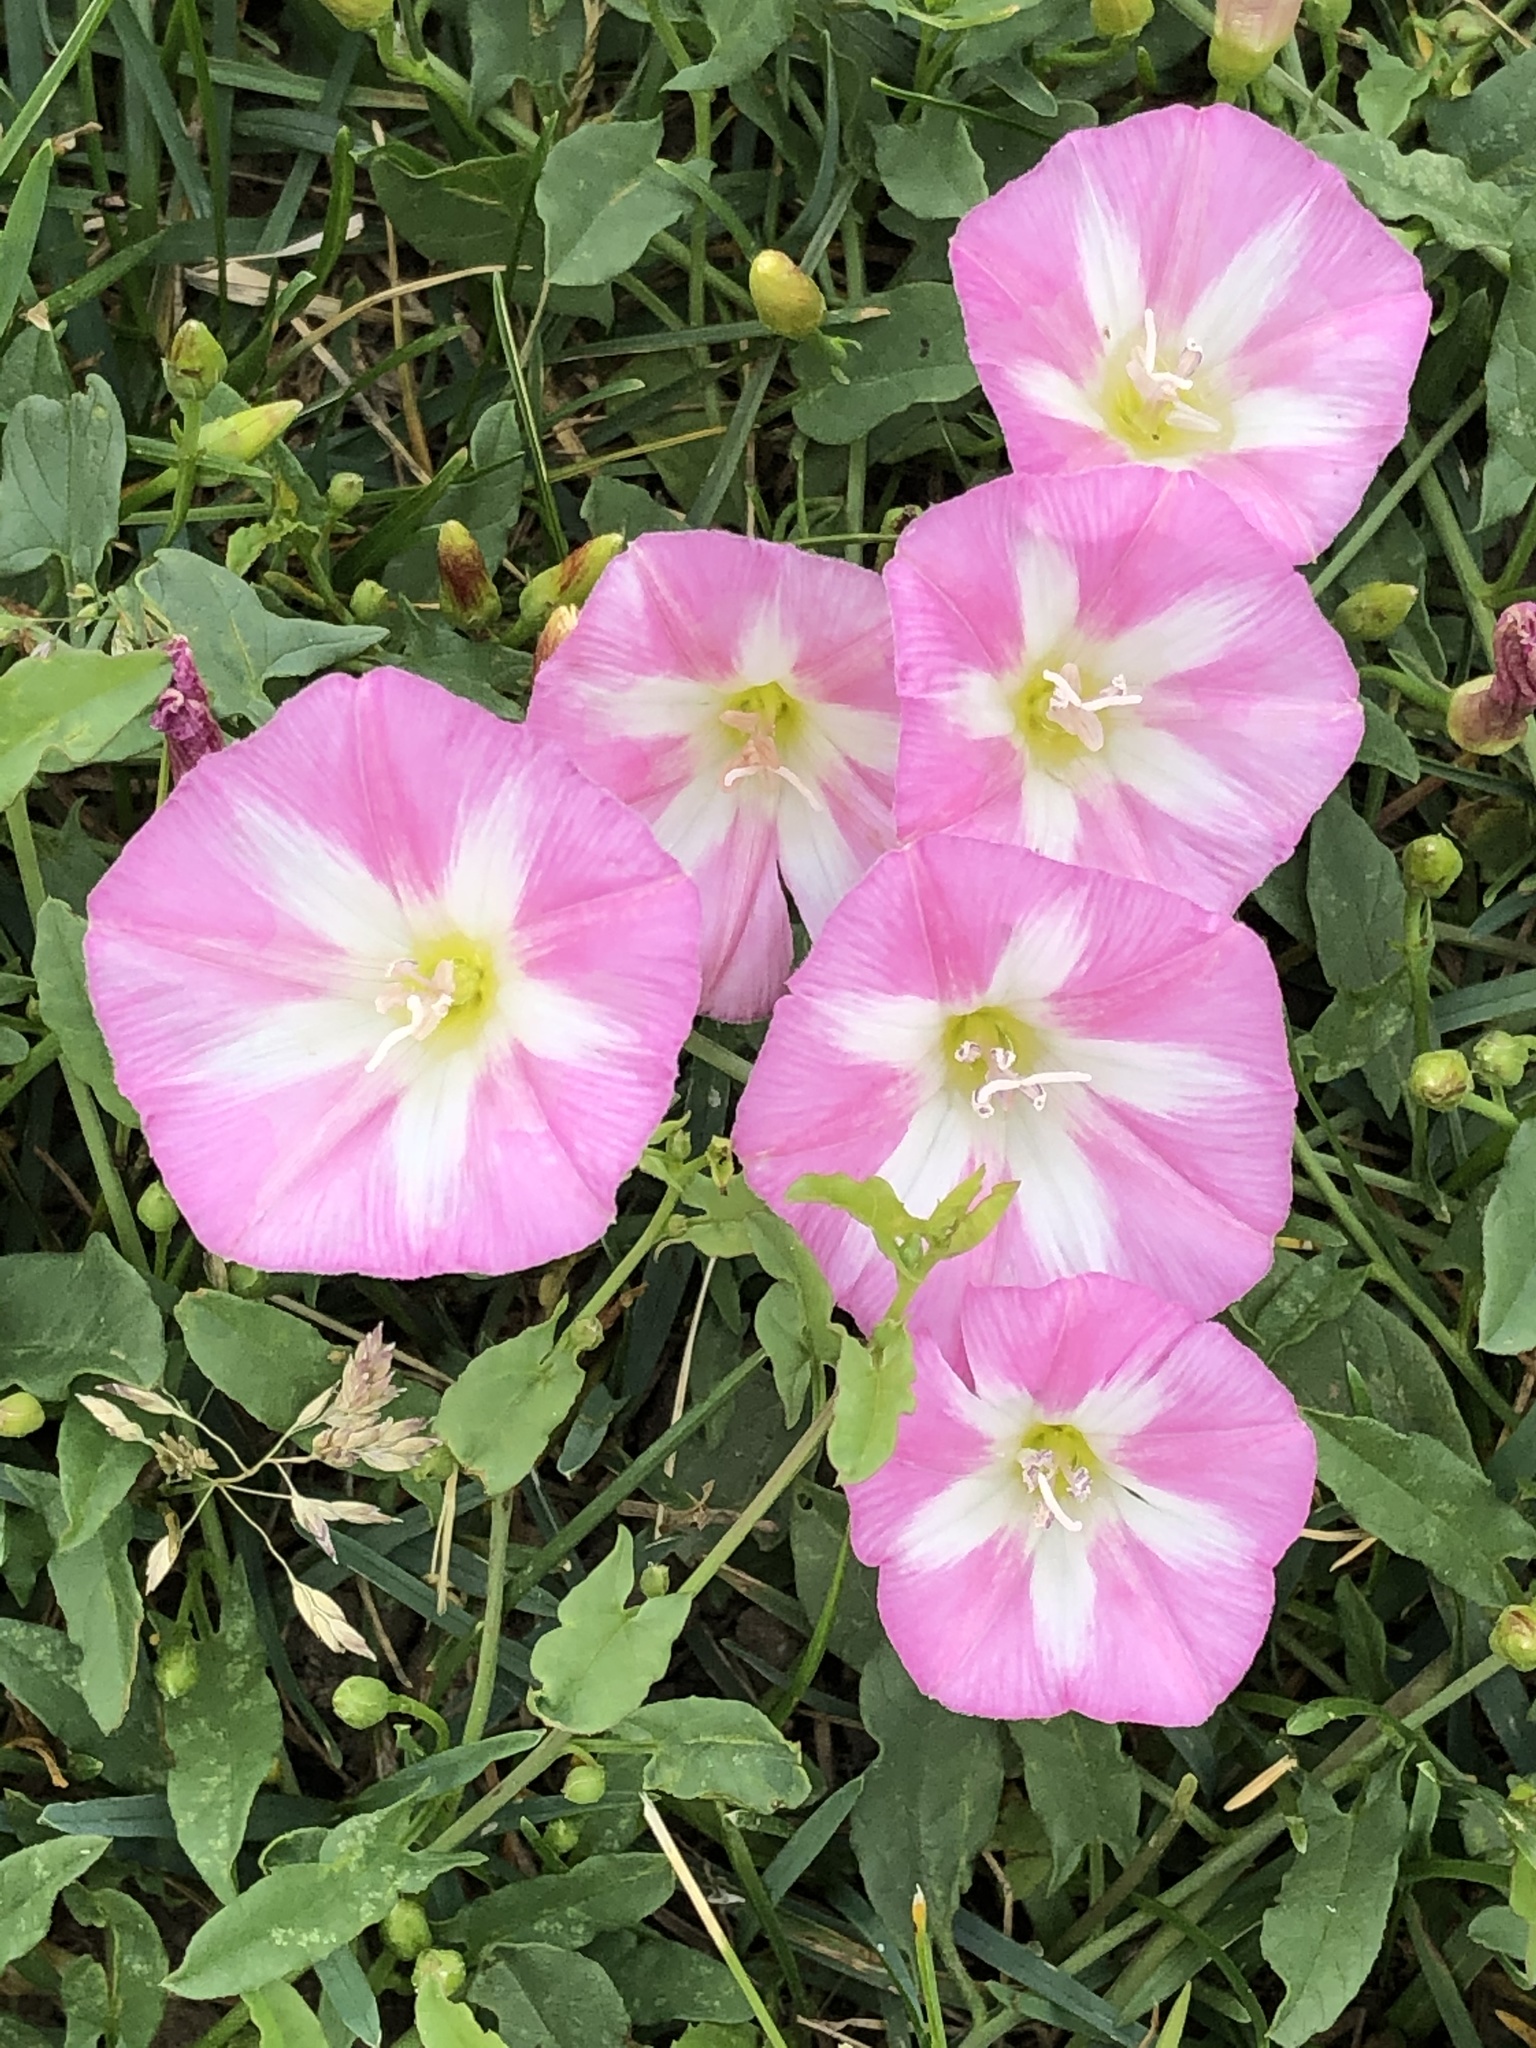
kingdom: Plantae
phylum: Tracheophyta
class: Magnoliopsida
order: Solanales
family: Convolvulaceae
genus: Convolvulus
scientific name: Convolvulus arvensis
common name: Field bindweed
